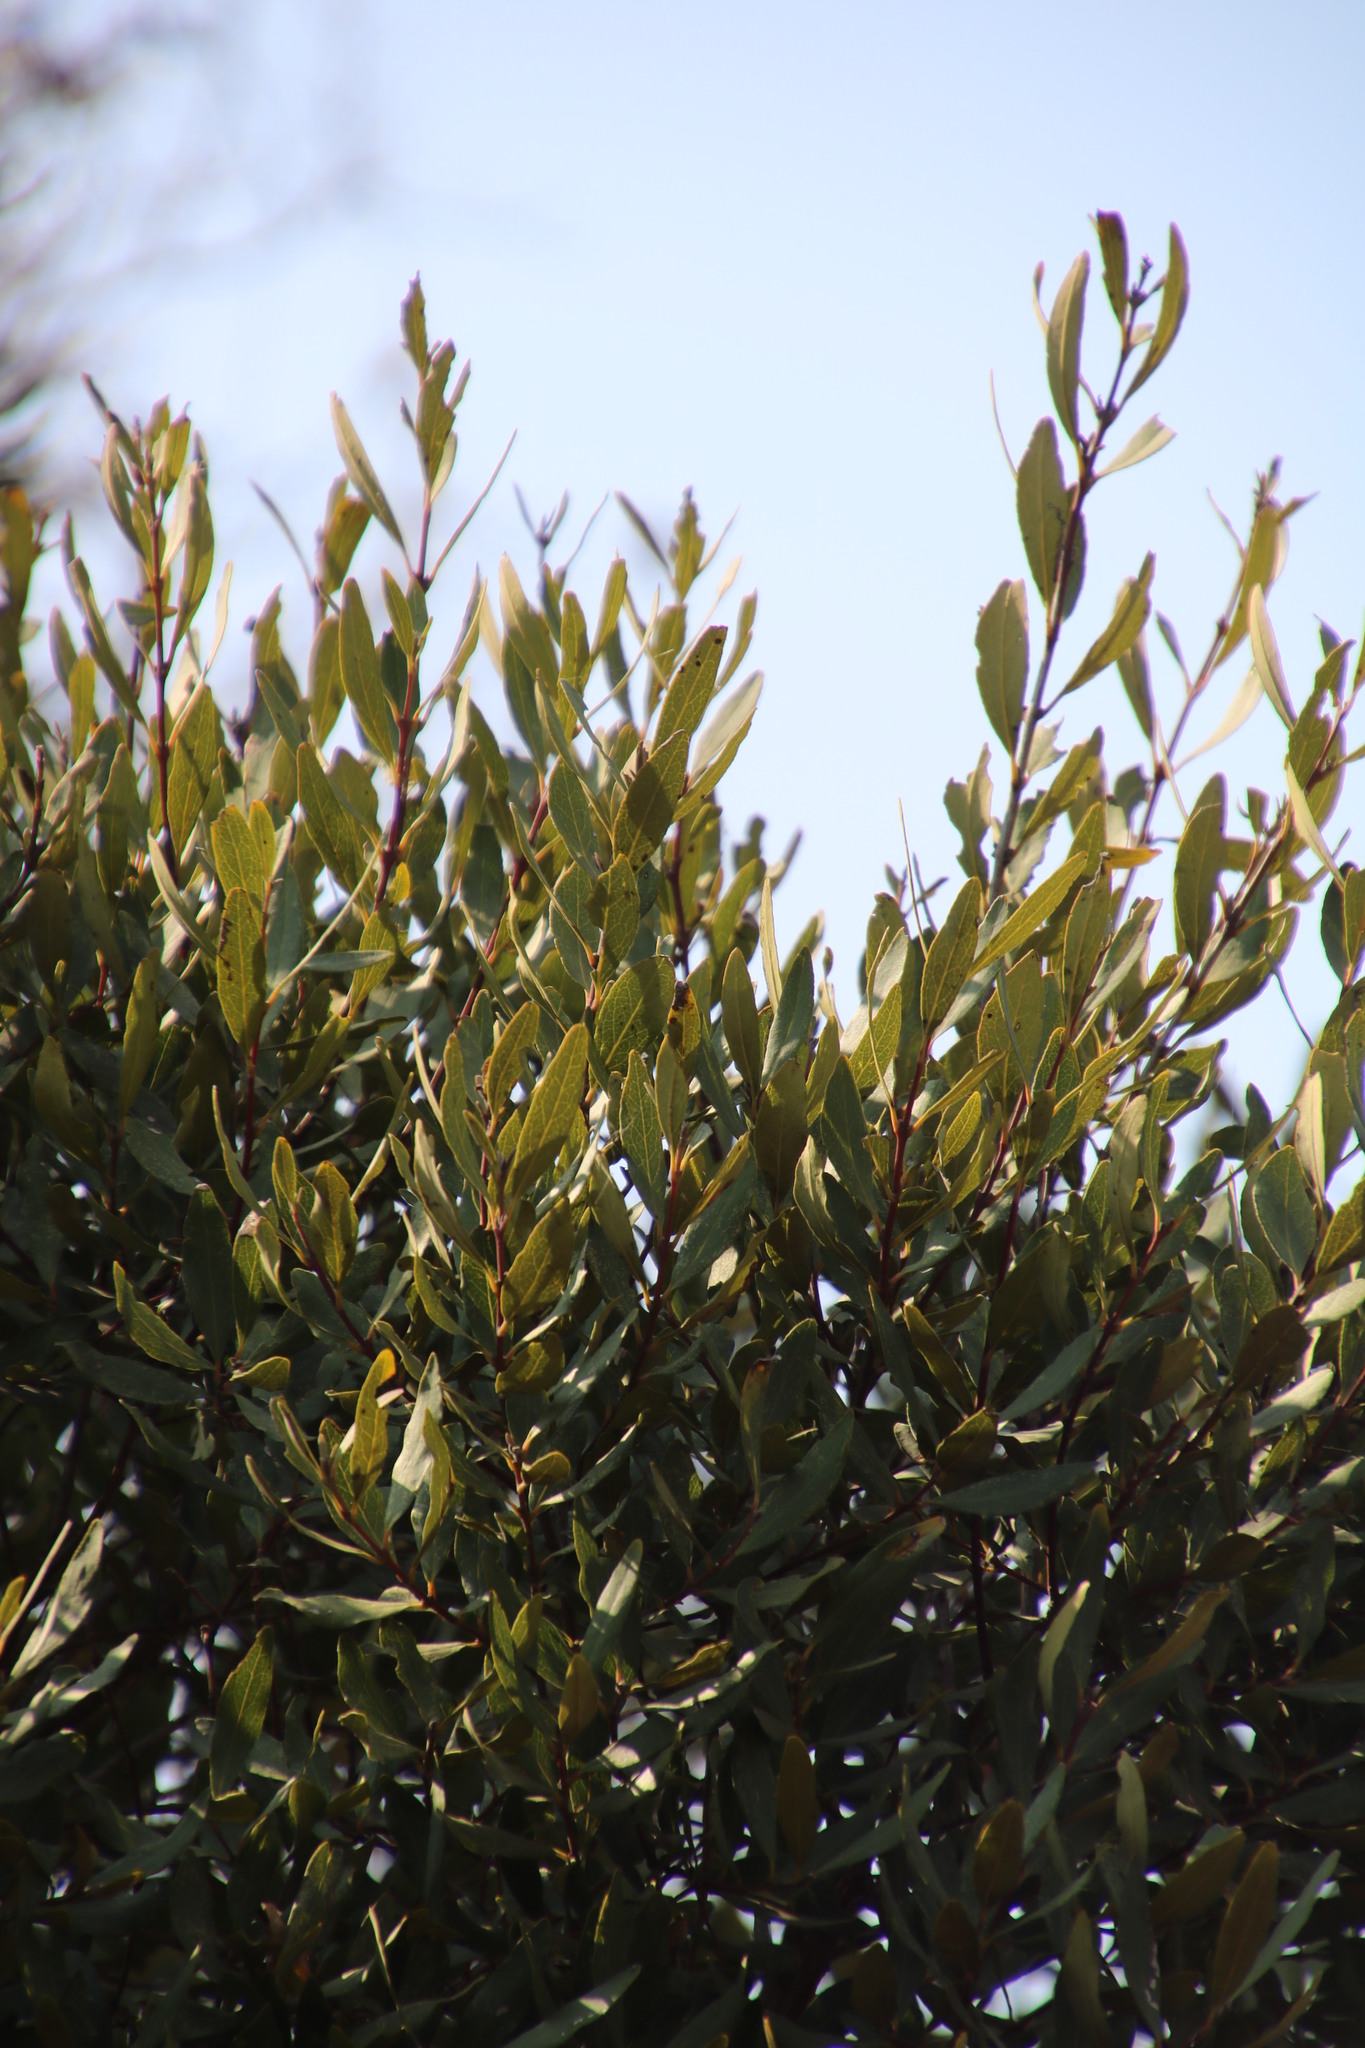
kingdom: Plantae
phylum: Tracheophyta
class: Magnoliopsida
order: Ericales
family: Ebenaceae
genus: Euclea
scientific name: Euclea crispa
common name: Blue guarri
